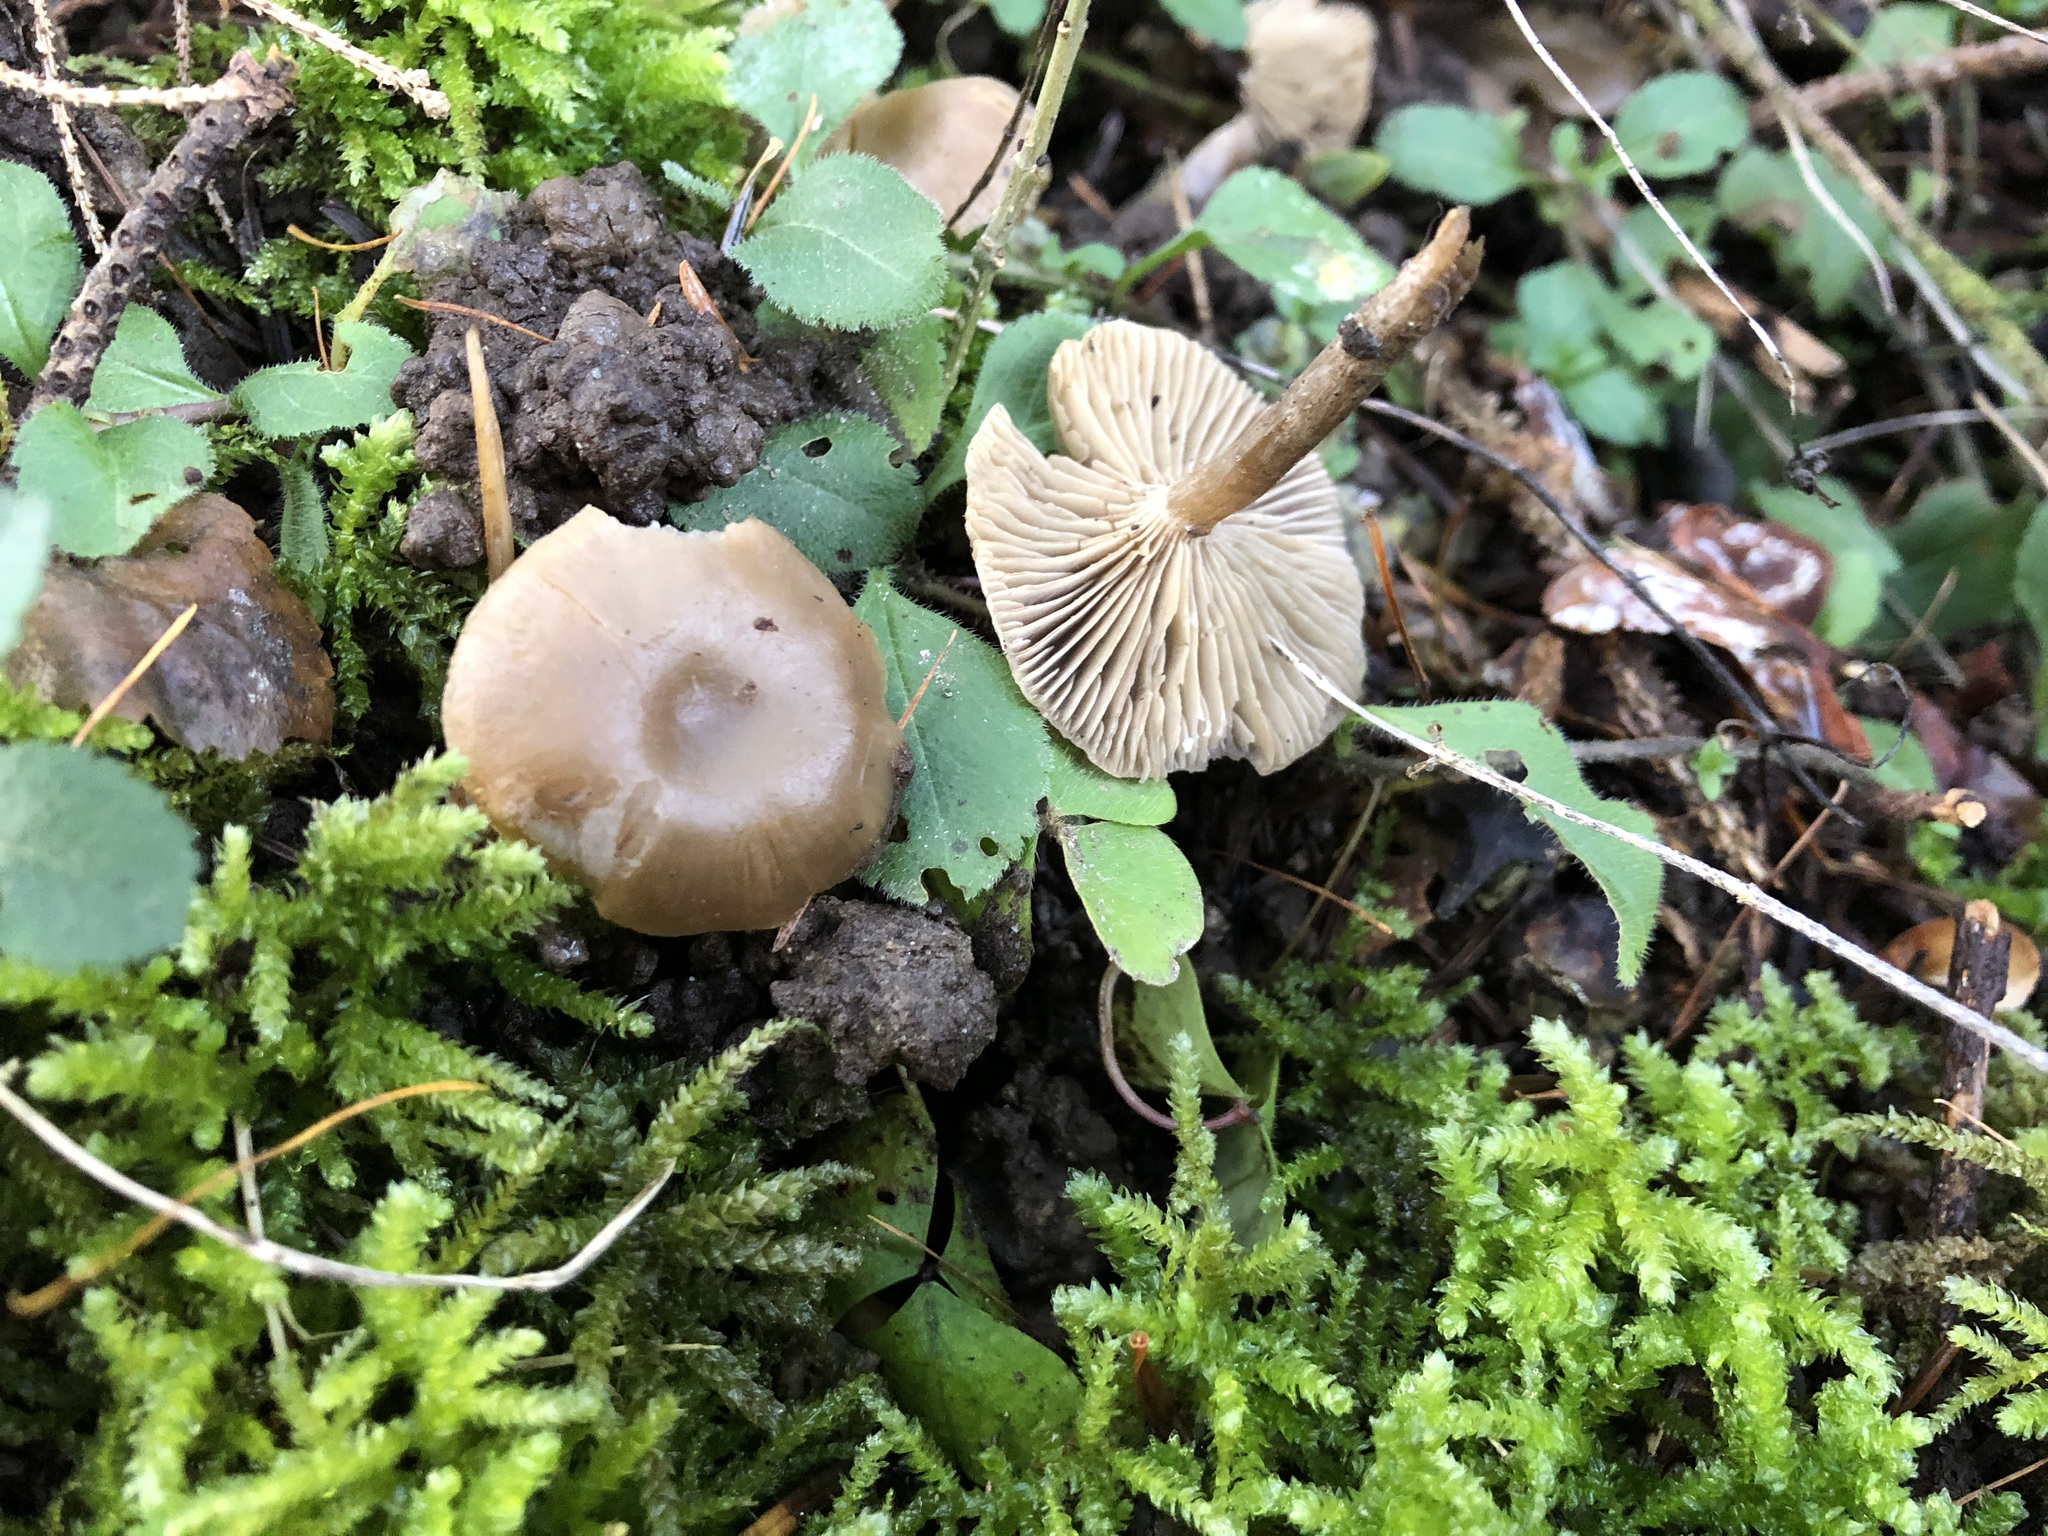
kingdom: Fungi
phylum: Basidiomycota
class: Agaricomycetes
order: Agaricales
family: Tricholomataceae
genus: Clitocybe
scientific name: Clitocybe vibecina
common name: Mealy funnel
